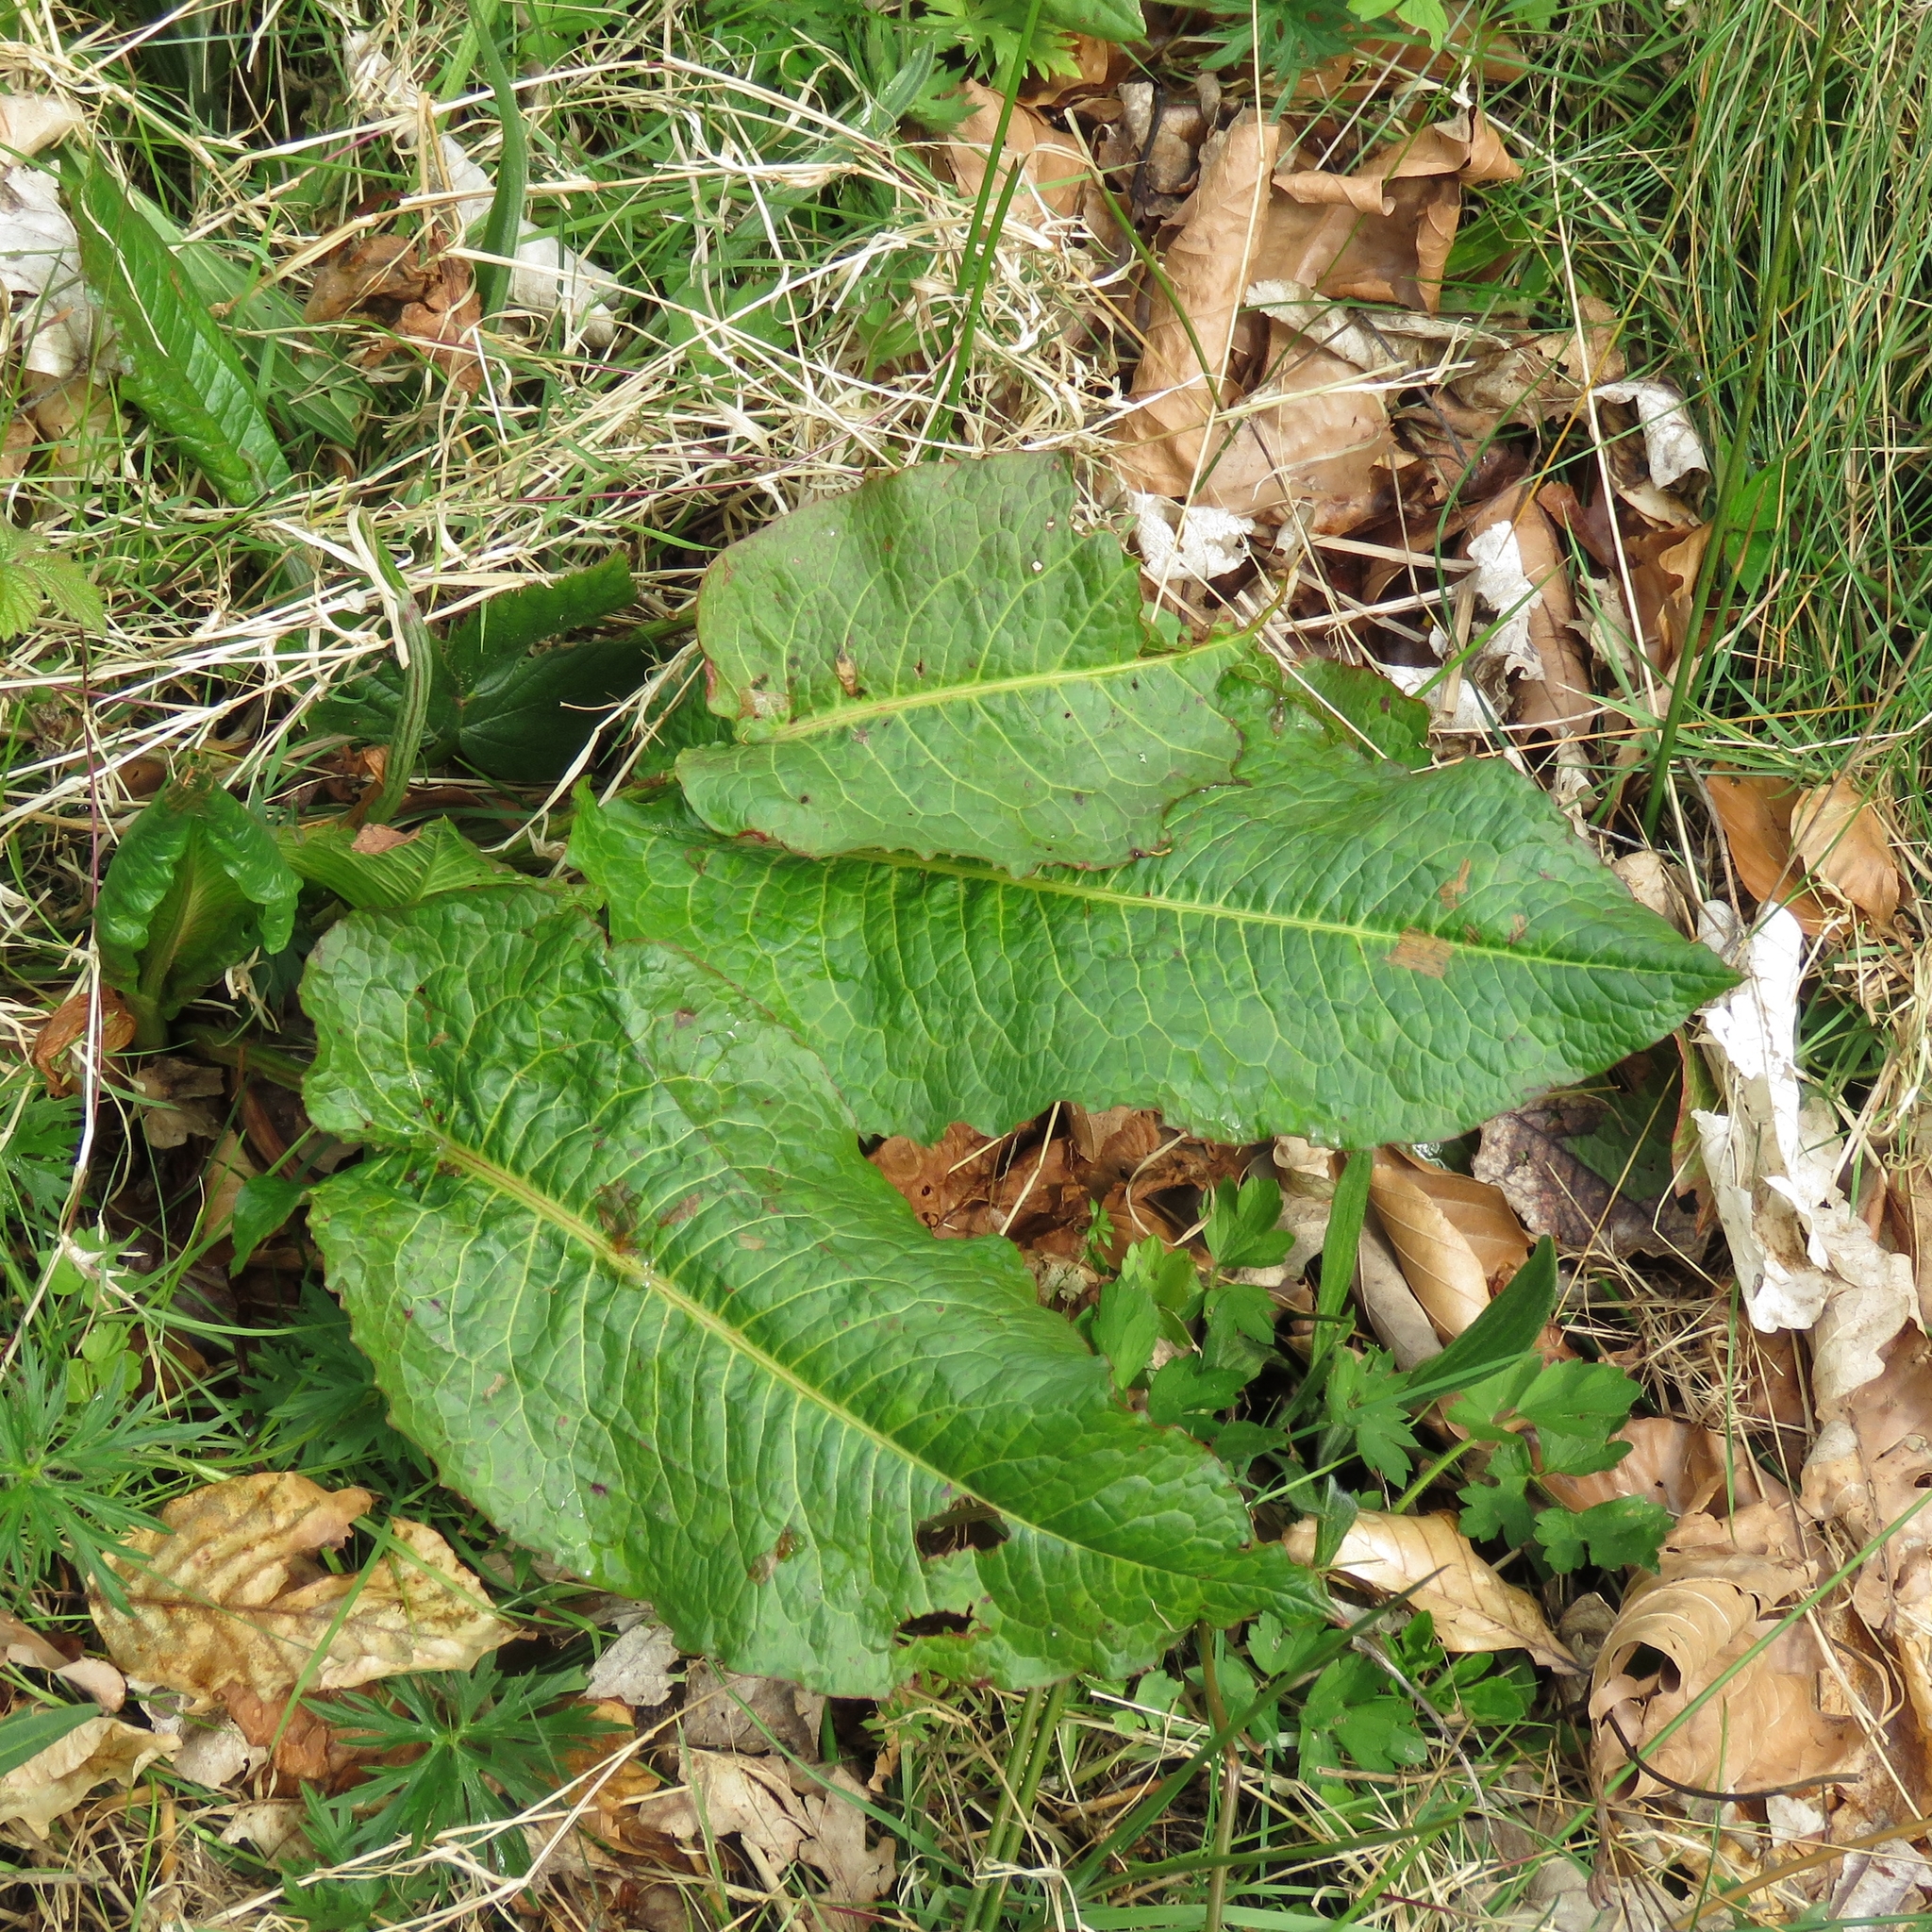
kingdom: Plantae
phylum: Tracheophyta
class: Magnoliopsida
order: Caryophyllales
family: Polygonaceae
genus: Rumex
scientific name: Rumex obtusifolius
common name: Bitter dock
